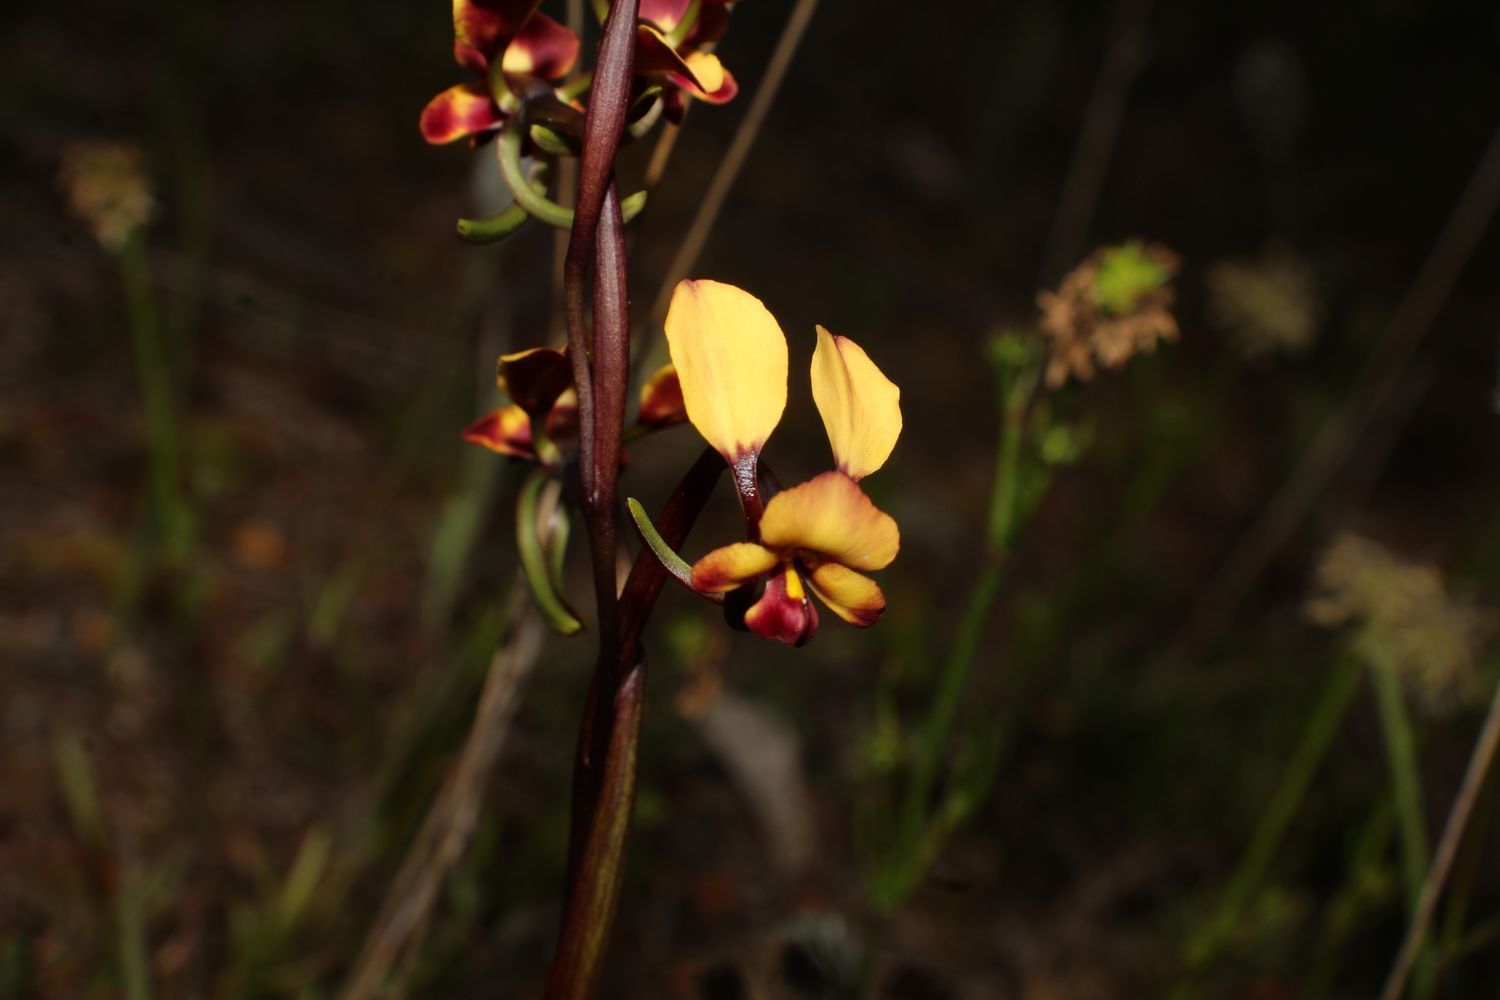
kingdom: Plantae
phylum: Tracheophyta
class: Liliopsida
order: Asparagales
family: Orchidaceae
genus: Diuris
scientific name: Diuris porrifolia
